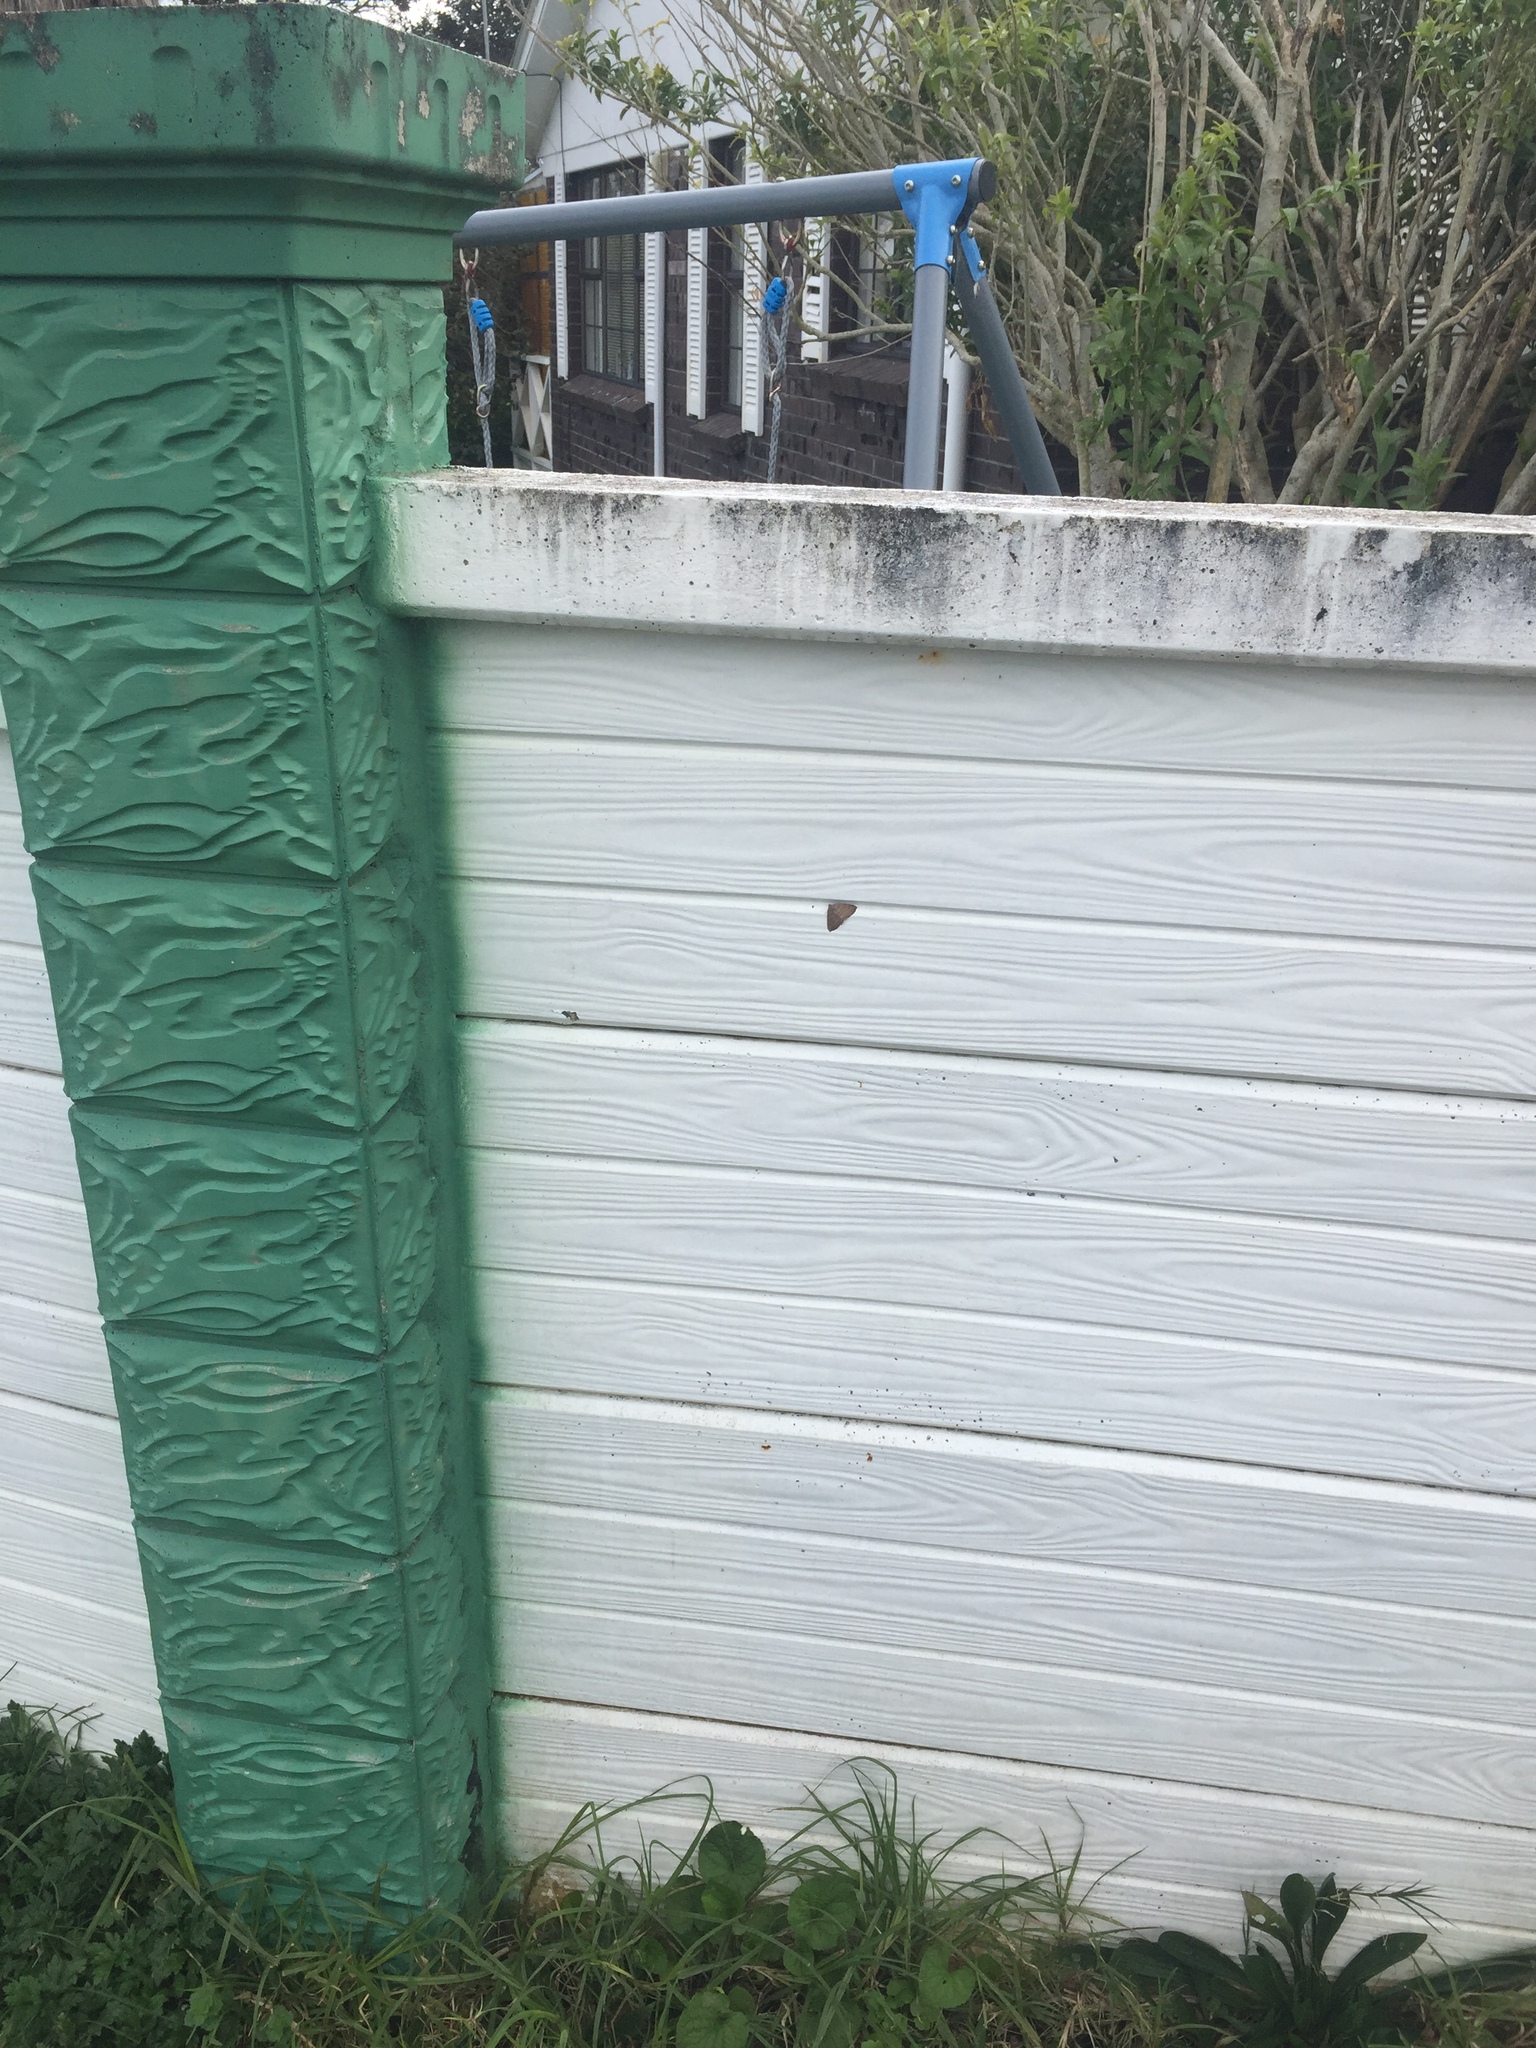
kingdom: Animalia
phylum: Arthropoda
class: Insecta
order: Lepidoptera
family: Geometridae
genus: Cleora
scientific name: Cleora scriptaria
